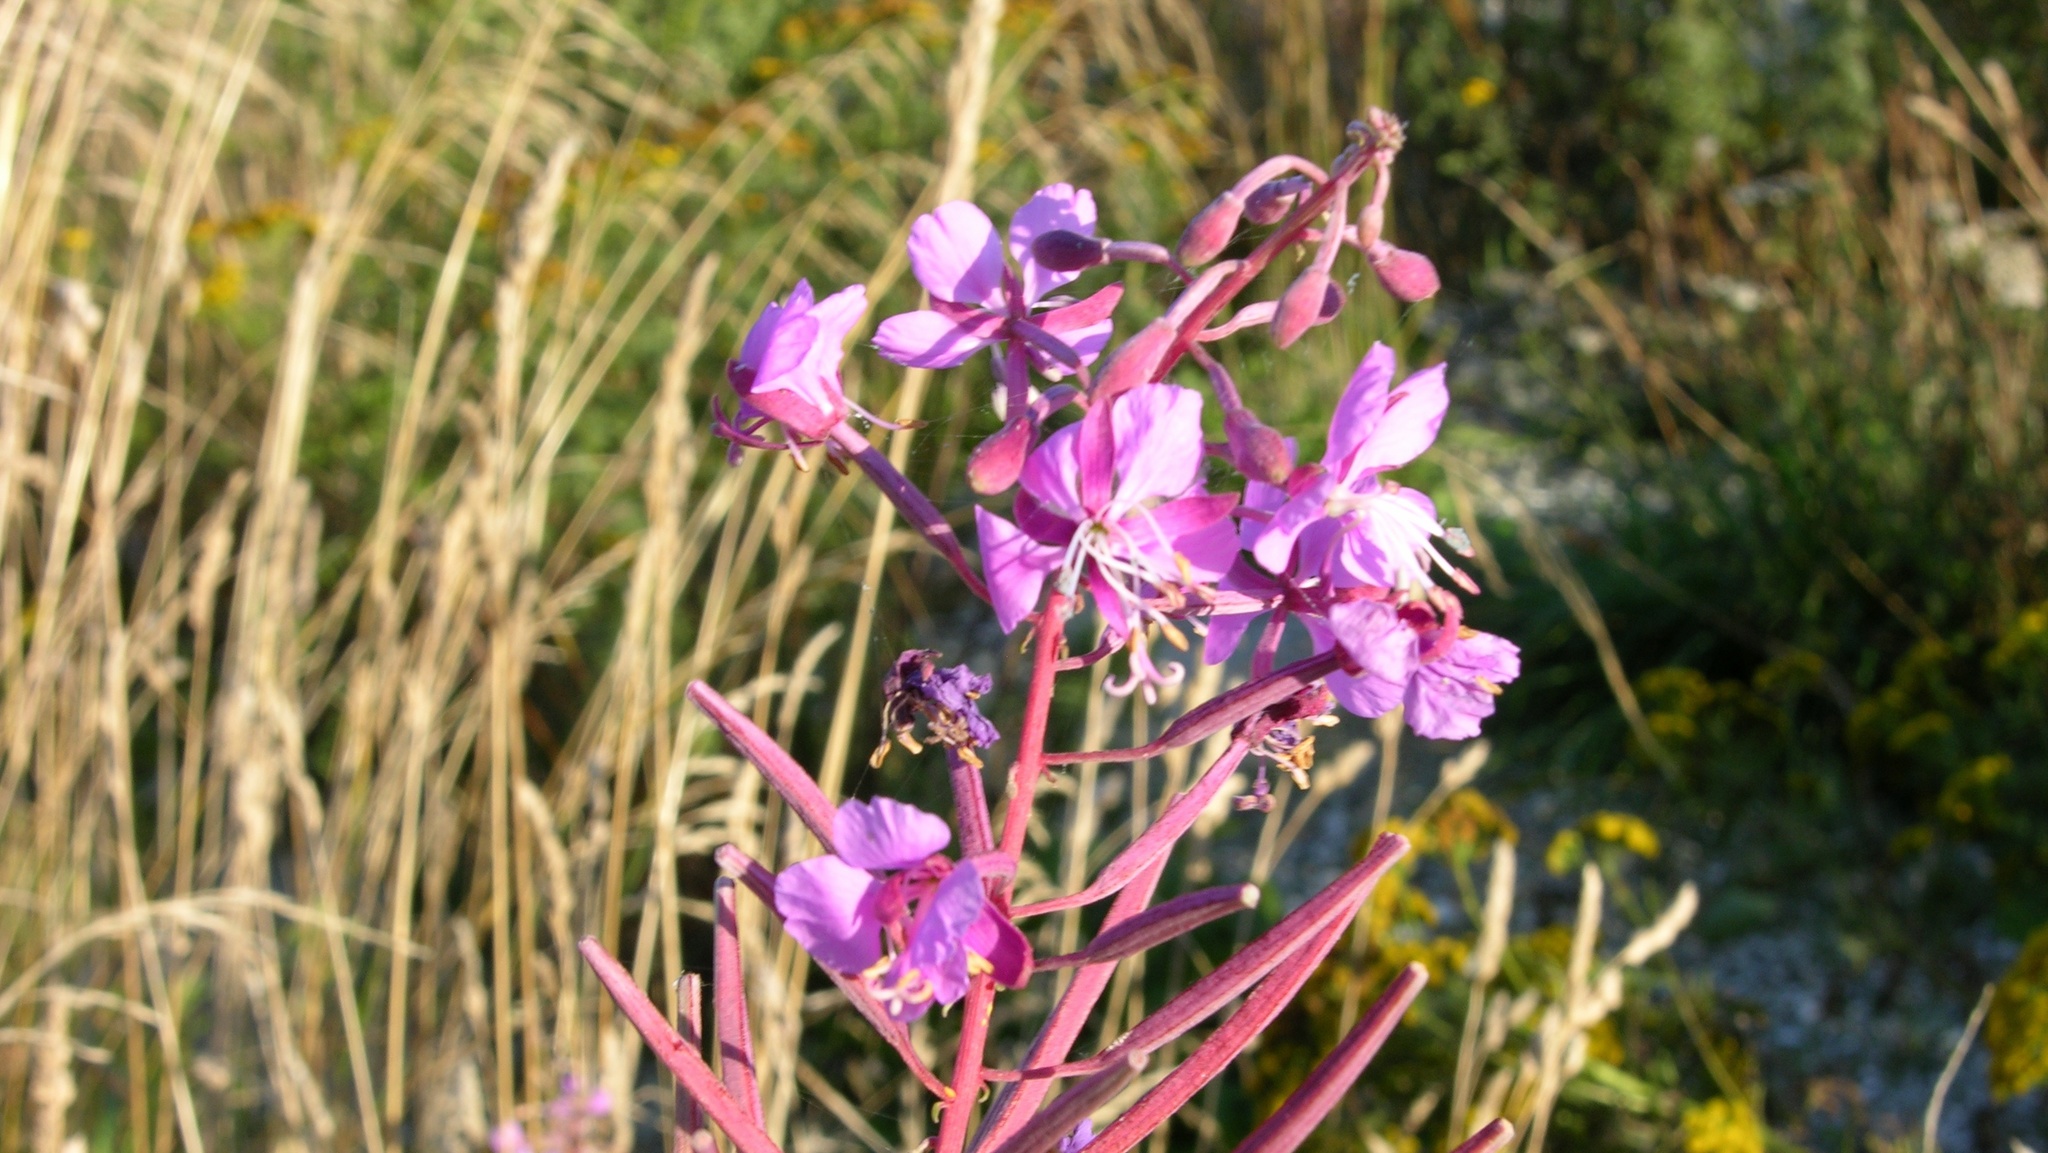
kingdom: Plantae
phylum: Tracheophyta
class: Magnoliopsida
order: Myrtales
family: Onagraceae
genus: Chamaenerion
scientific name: Chamaenerion angustifolium
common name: Fireweed
